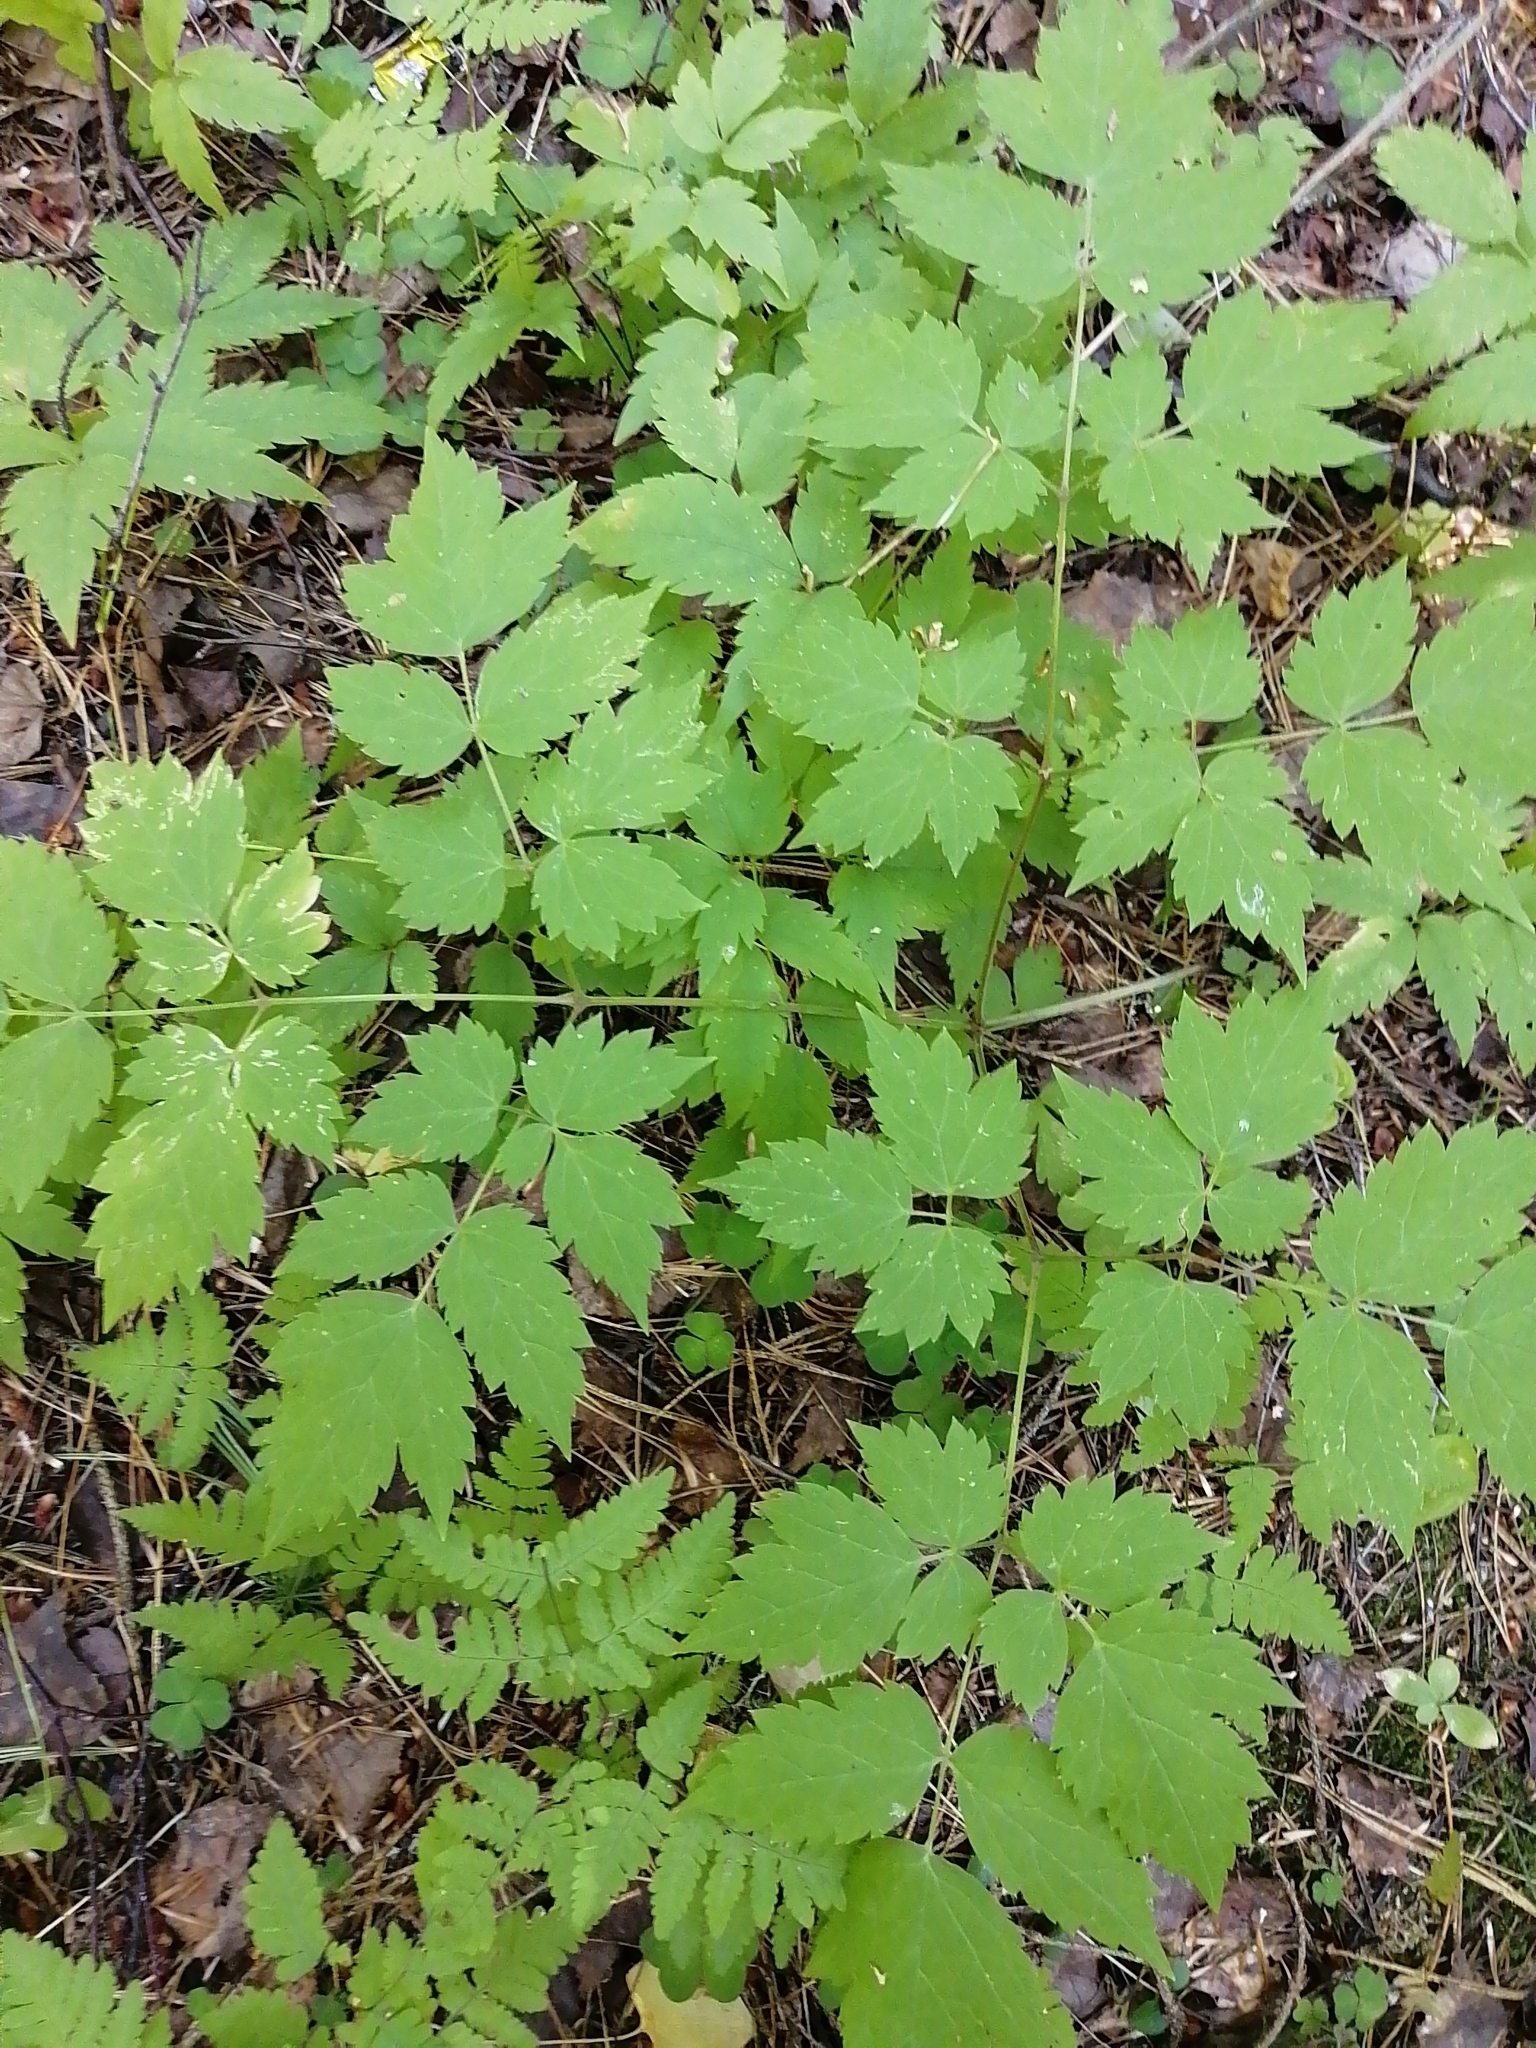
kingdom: Plantae
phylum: Tracheophyta
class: Magnoliopsida
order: Ranunculales
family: Ranunculaceae
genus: Actaea
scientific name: Actaea erythrocarpa
